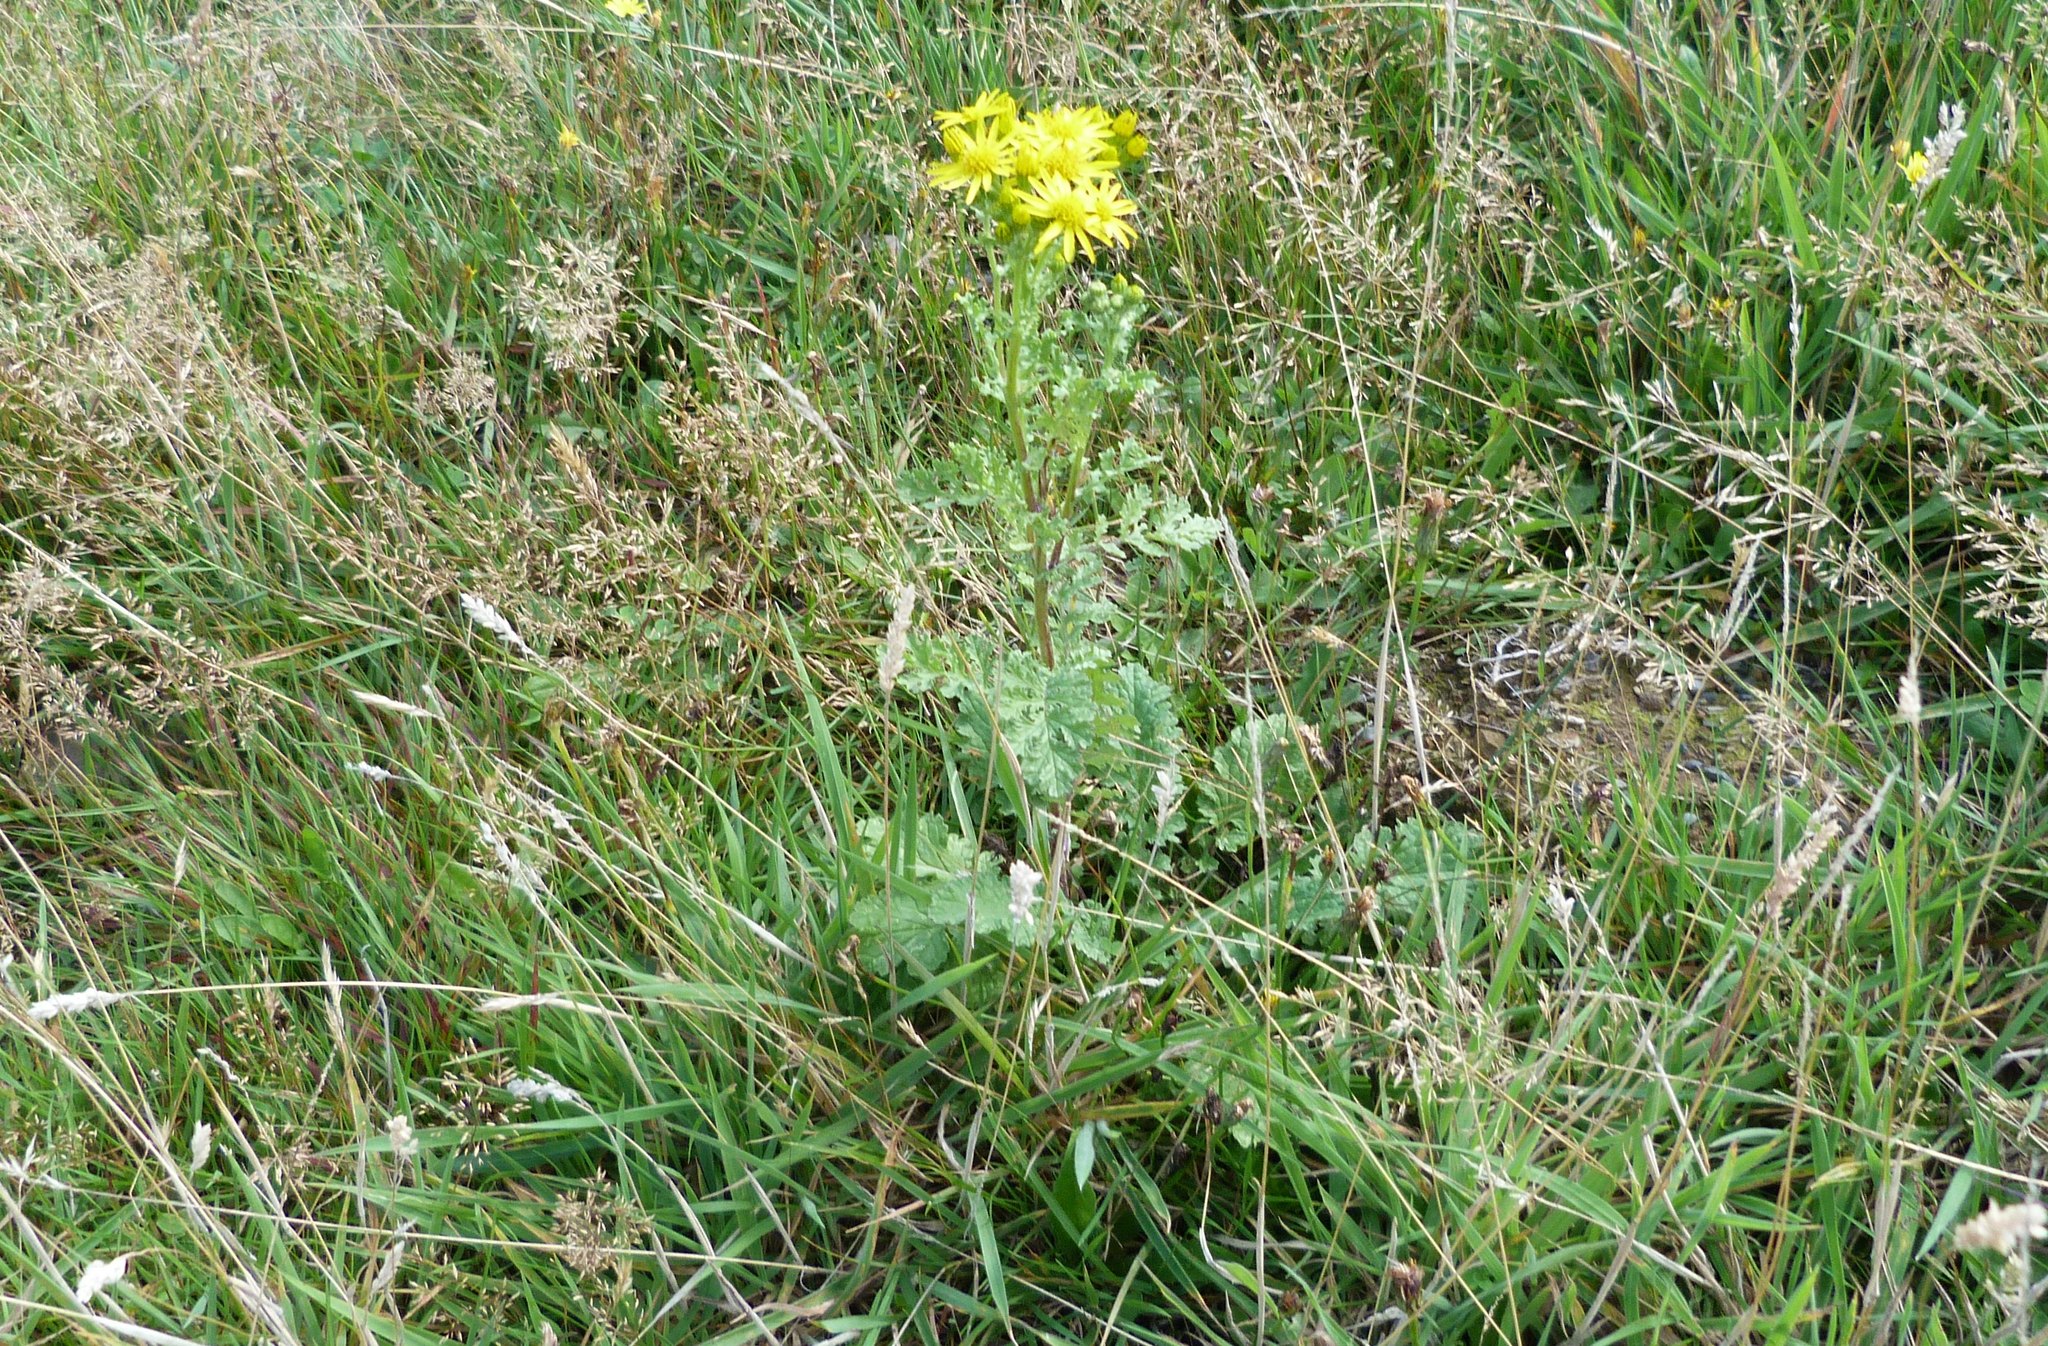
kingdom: Plantae
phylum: Tracheophyta
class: Magnoliopsida
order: Asterales
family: Asteraceae
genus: Jacobaea
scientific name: Jacobaea vulgaris
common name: Stinking willie
